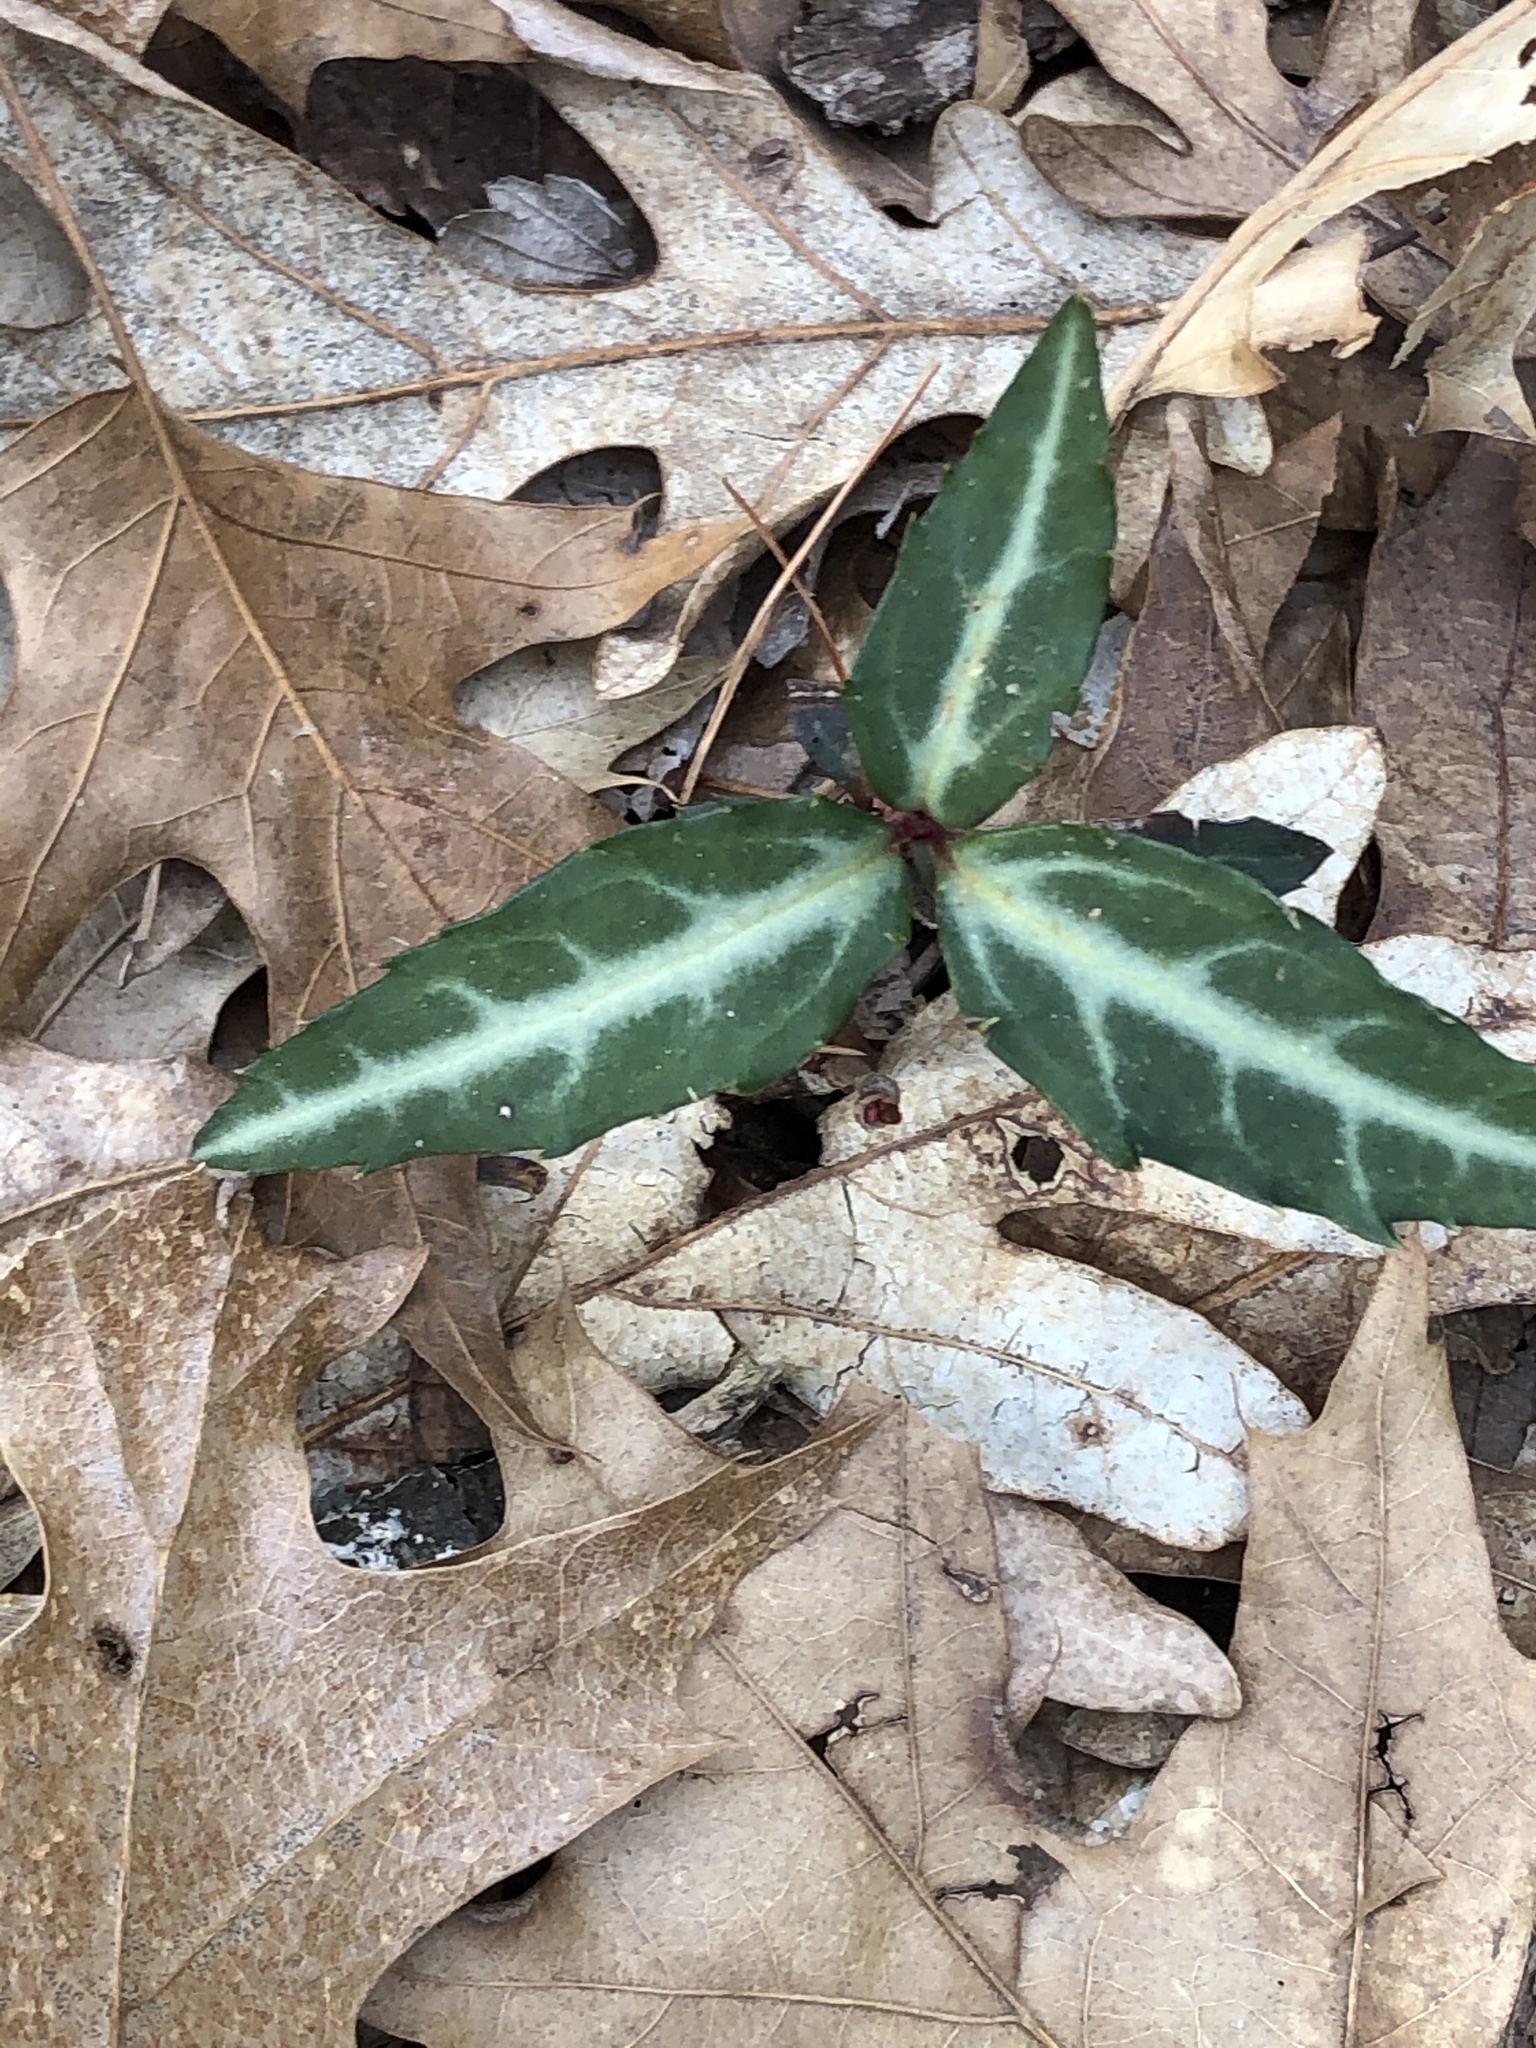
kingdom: Plantae
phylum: Tracheophyta
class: Magnoliopsida
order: Ericales
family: Ericaceae
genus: Chimaphila
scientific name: Chimaphila maculata
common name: Spotted pipsissewa
